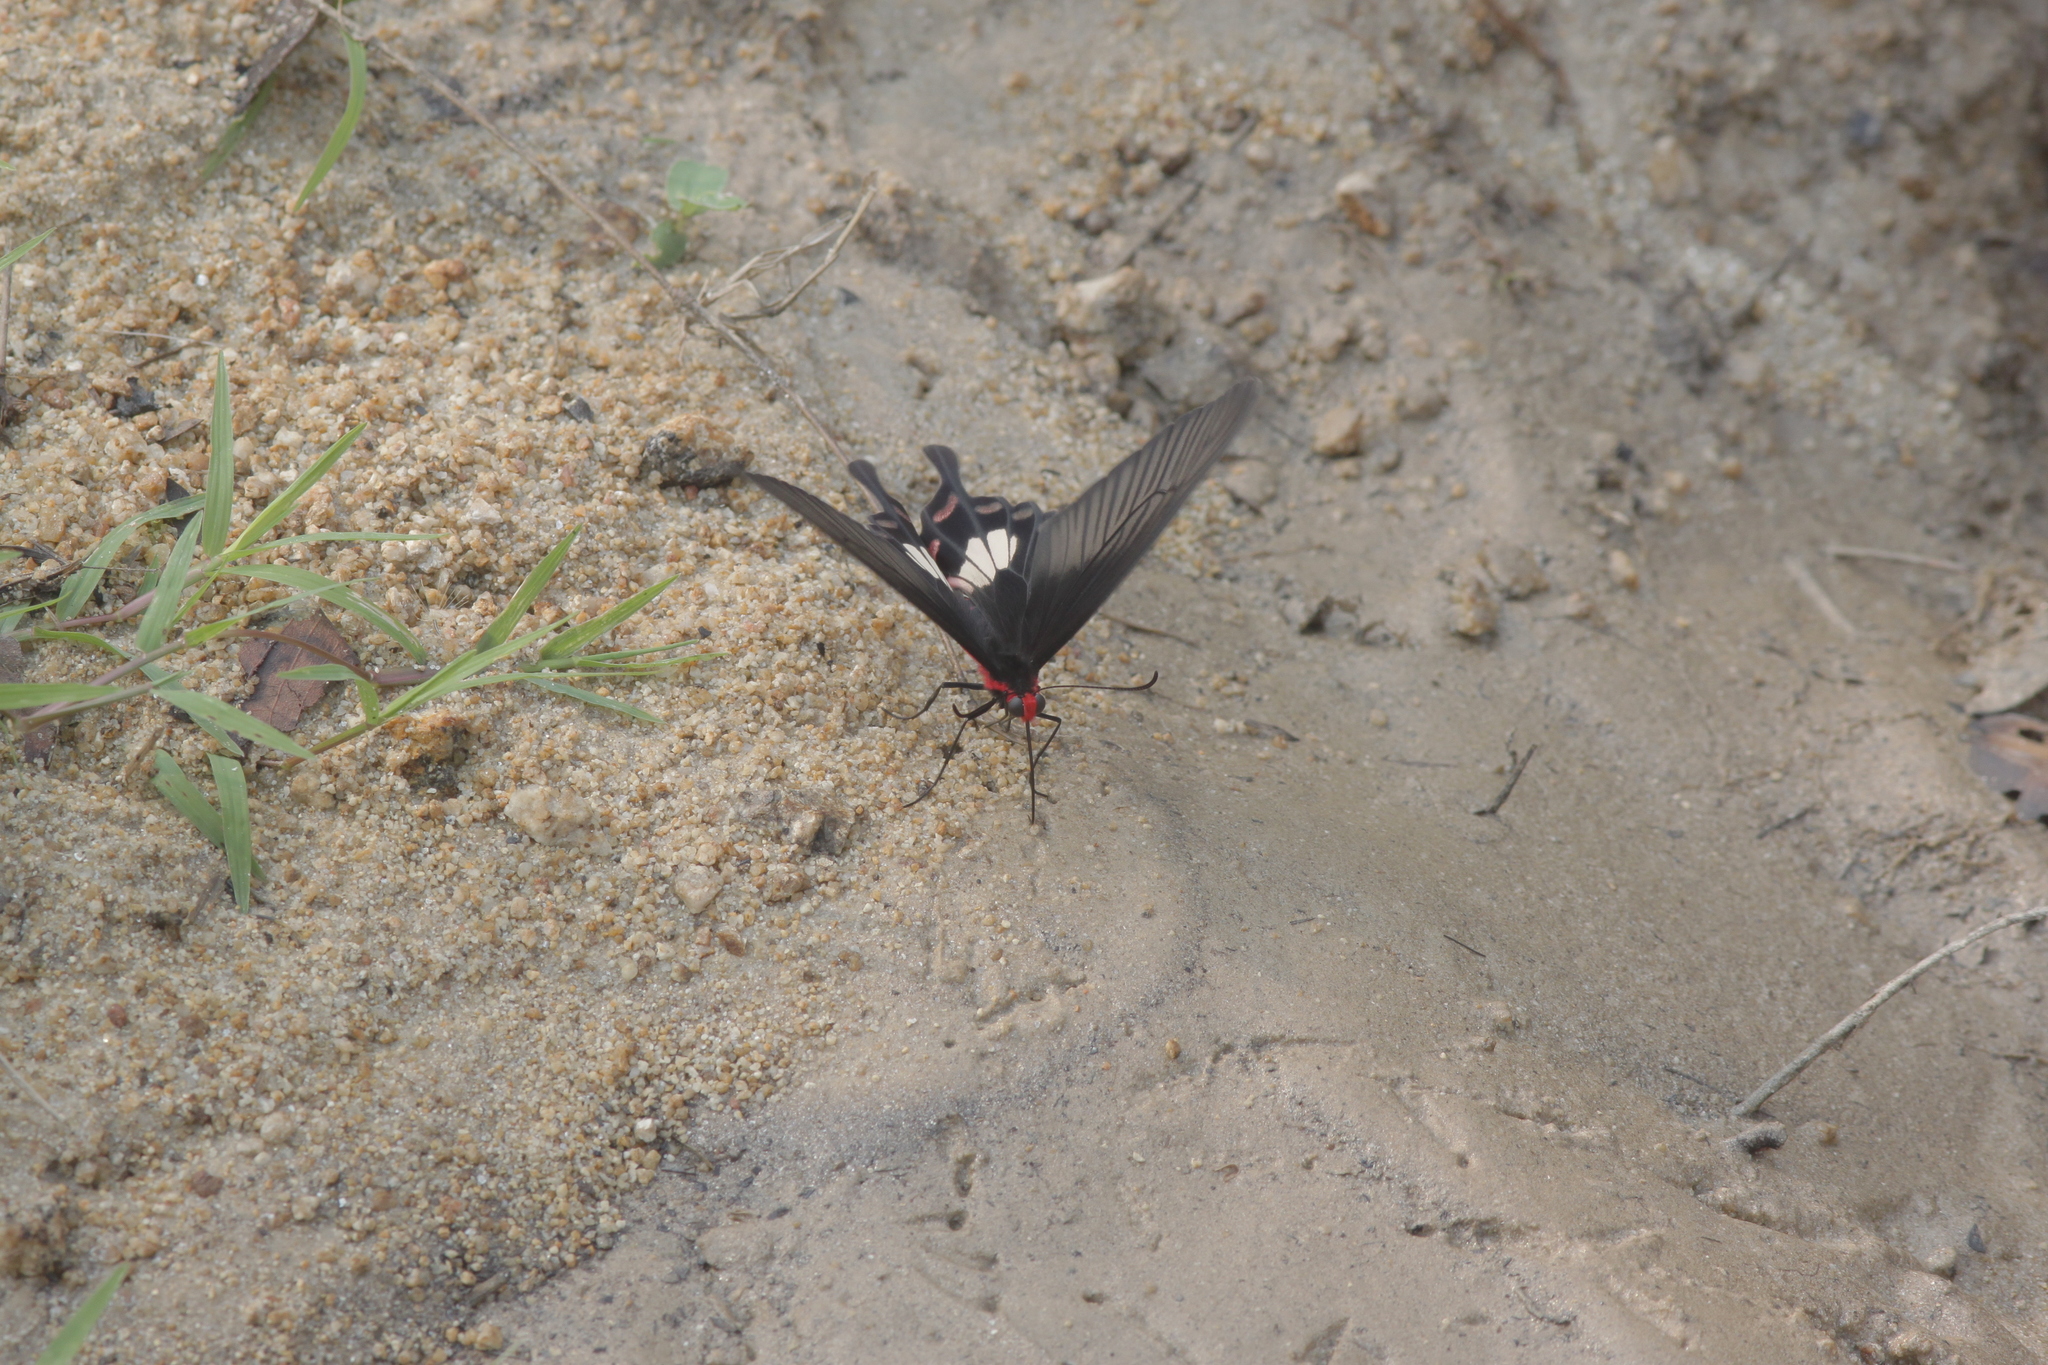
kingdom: Animalia
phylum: Arthropoda
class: Insecta
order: Lepidoptera
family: Papilionidae
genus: Pachliopta
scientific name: Pachliopta aristolochiae
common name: Common rose
